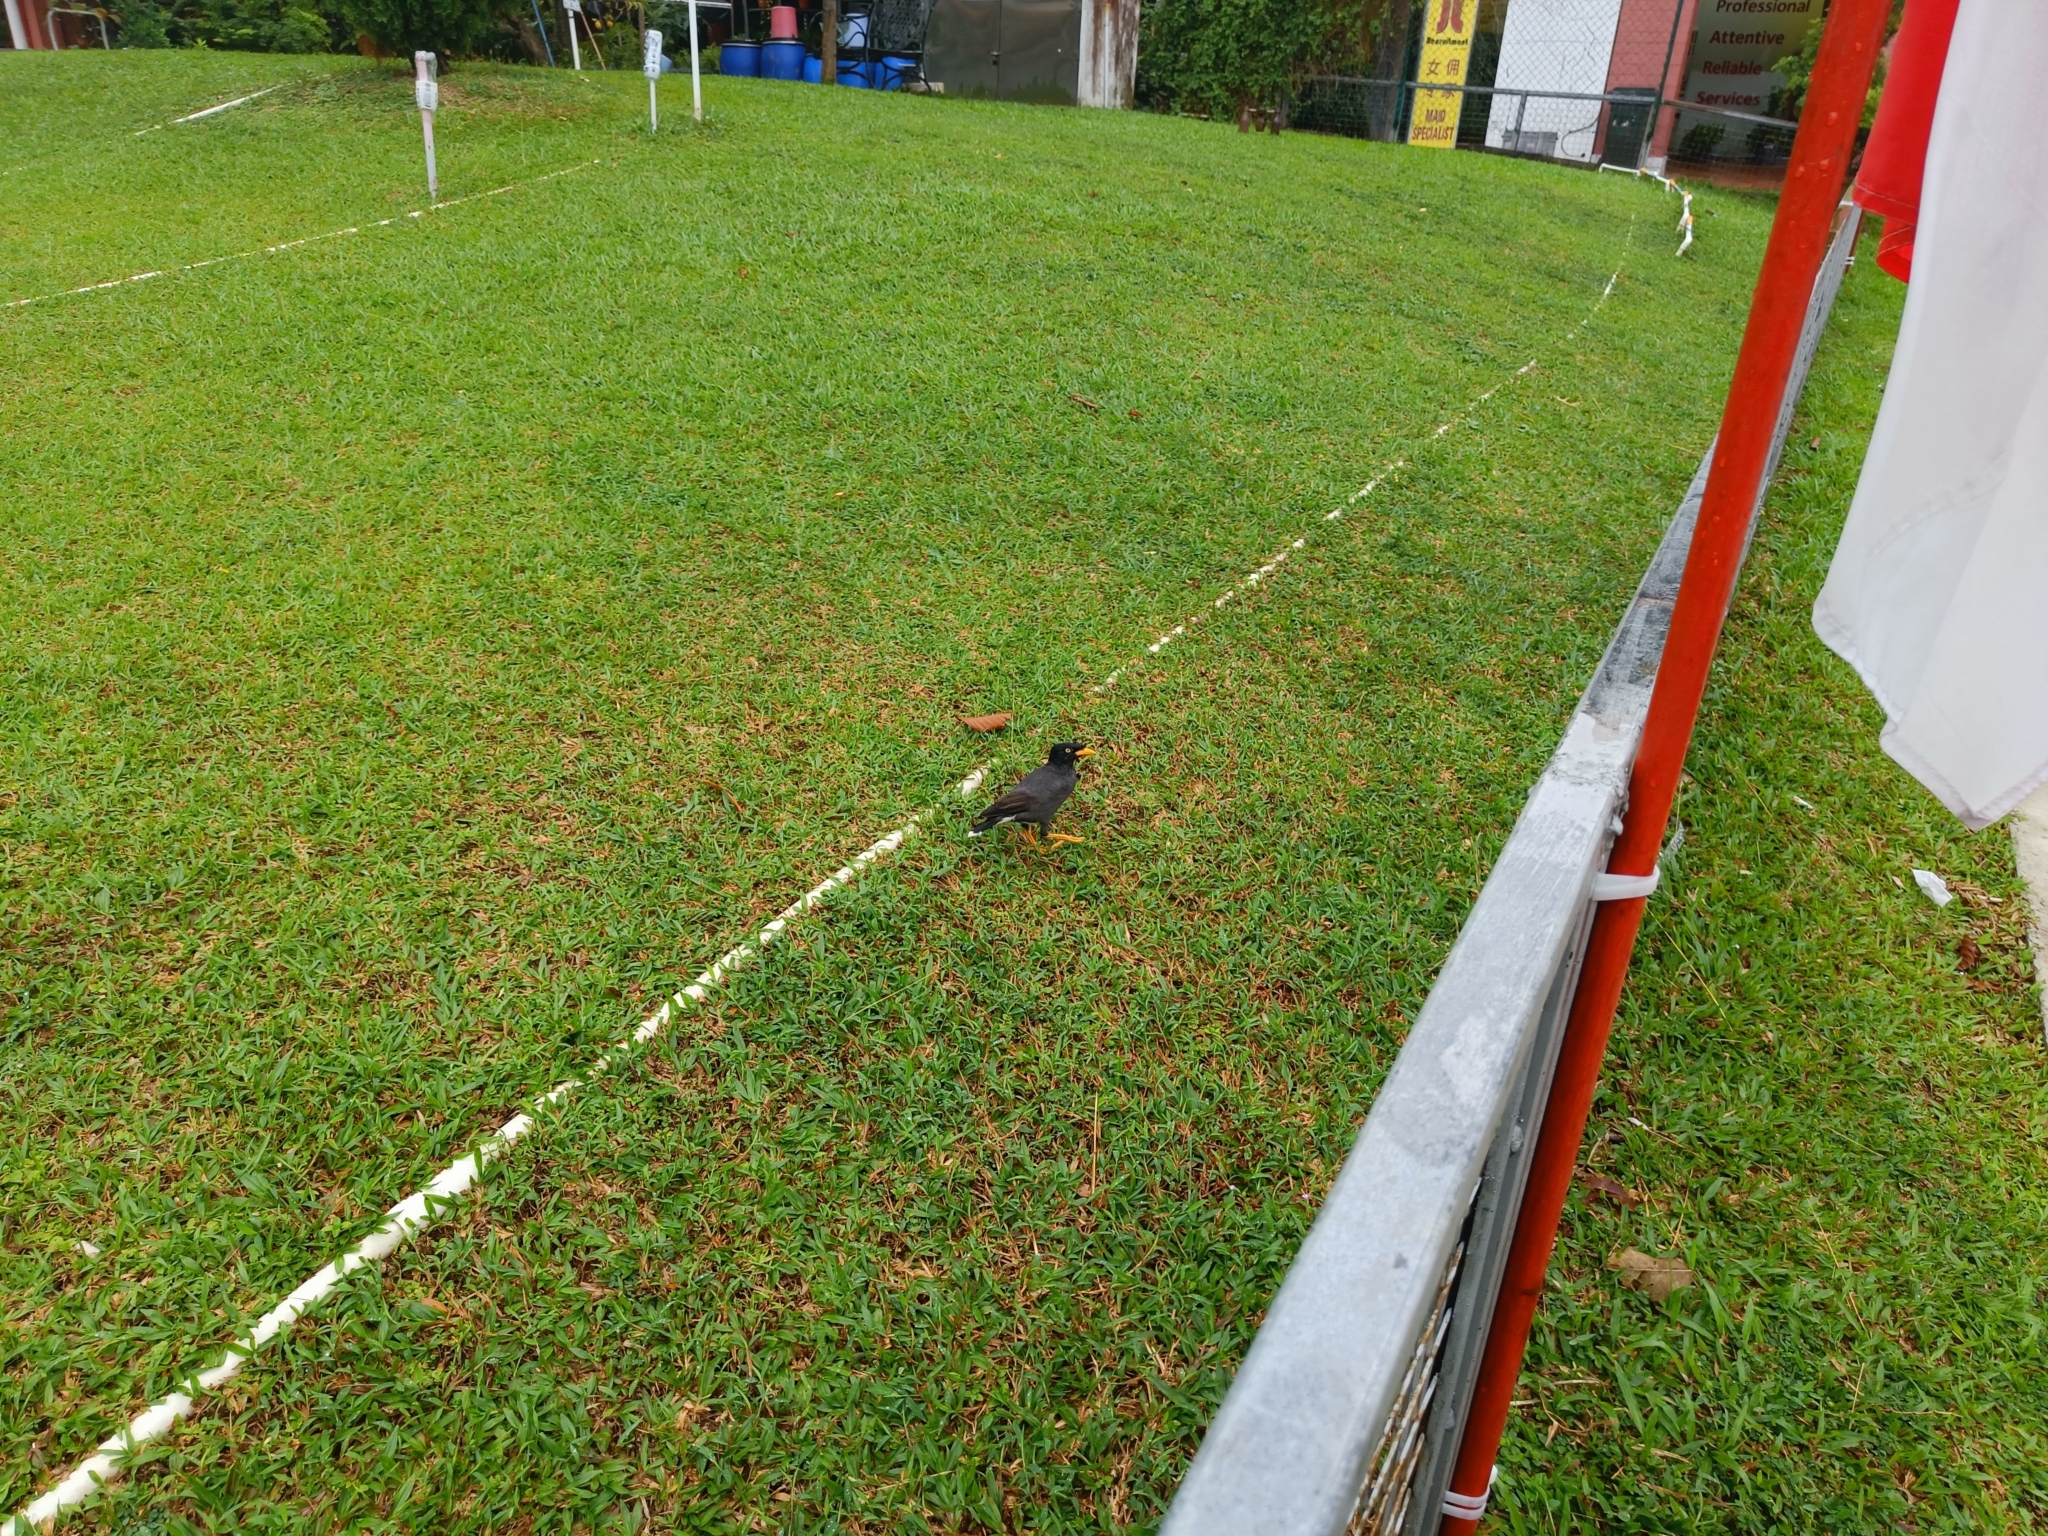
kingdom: Animalia
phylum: Chordata
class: Aves
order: Passeriformes
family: Sturnidae
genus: Acridotheres
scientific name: Acridotheres javanicus
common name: Javan myna
